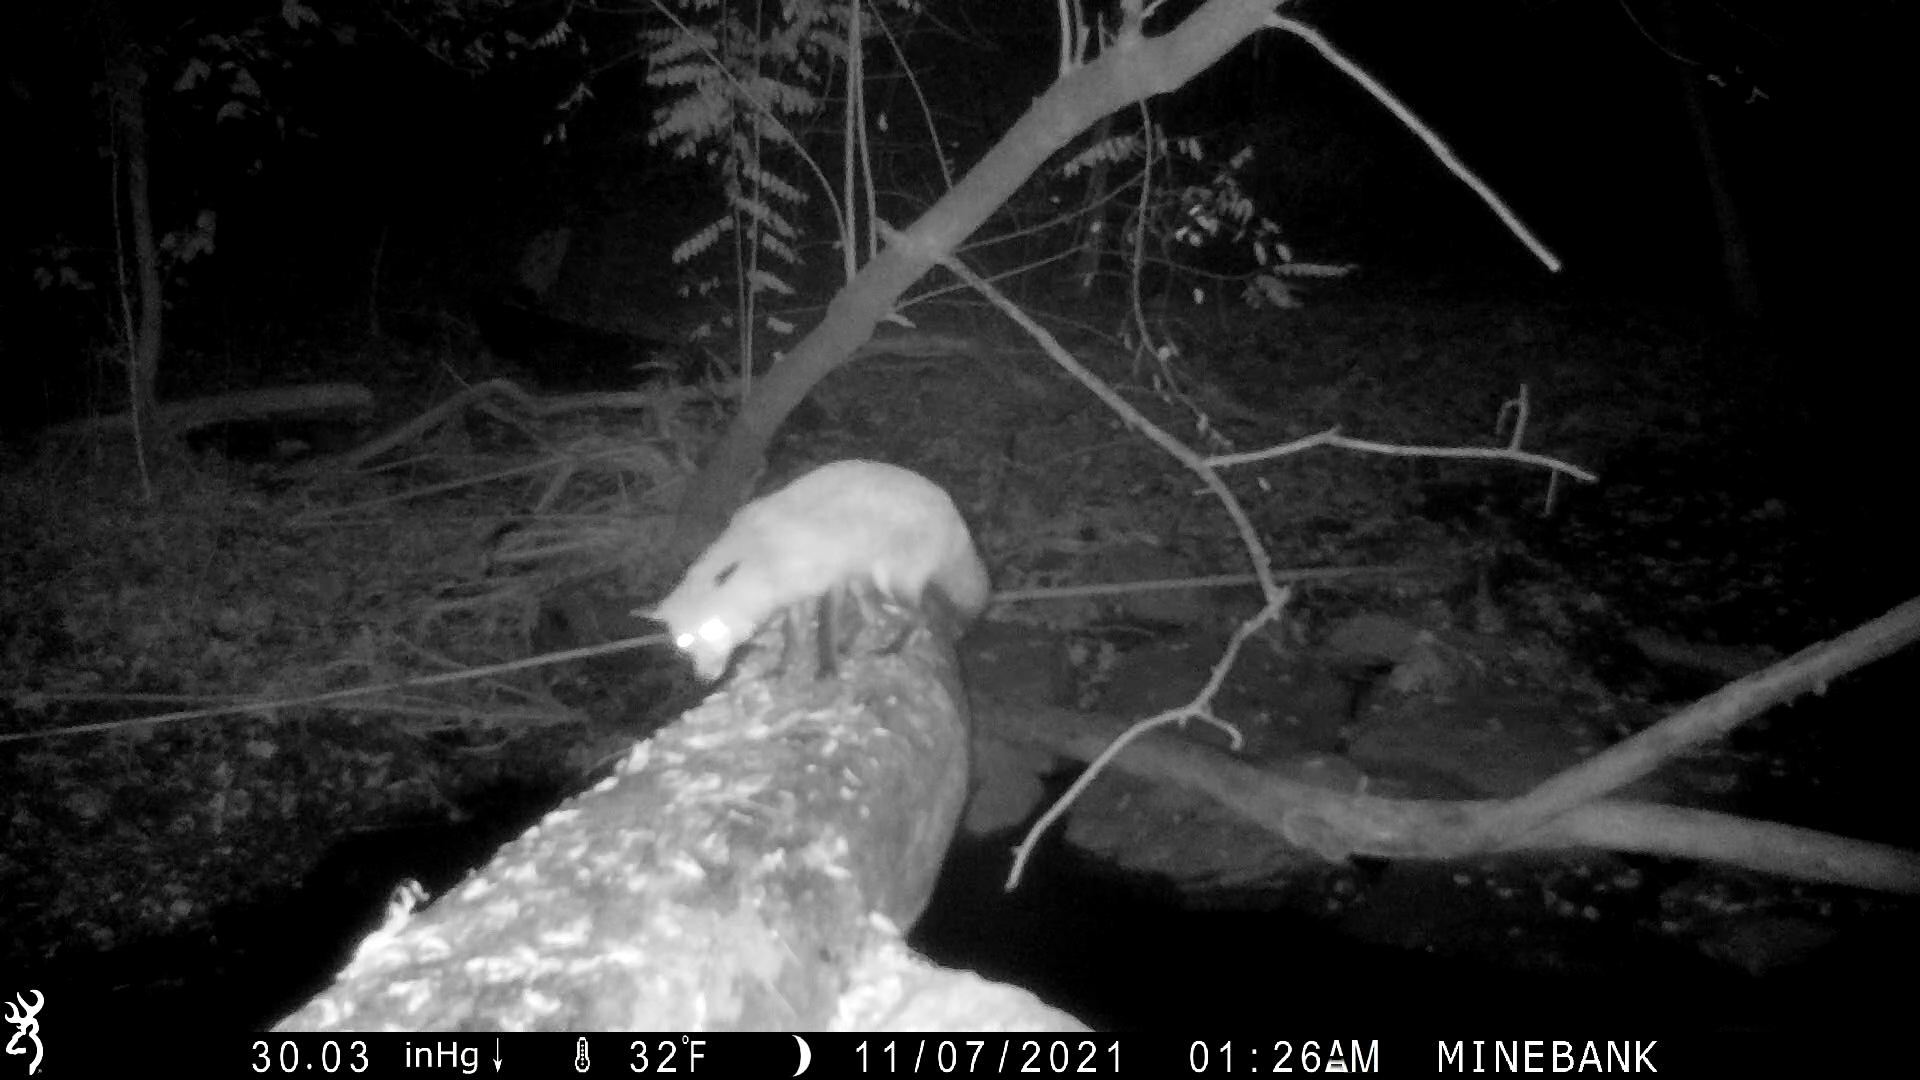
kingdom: Animalia
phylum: Chordata
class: Mammalia
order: Carnivora
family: Canidae
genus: Vulpes
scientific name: Vulpes vulpes
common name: Red fox
